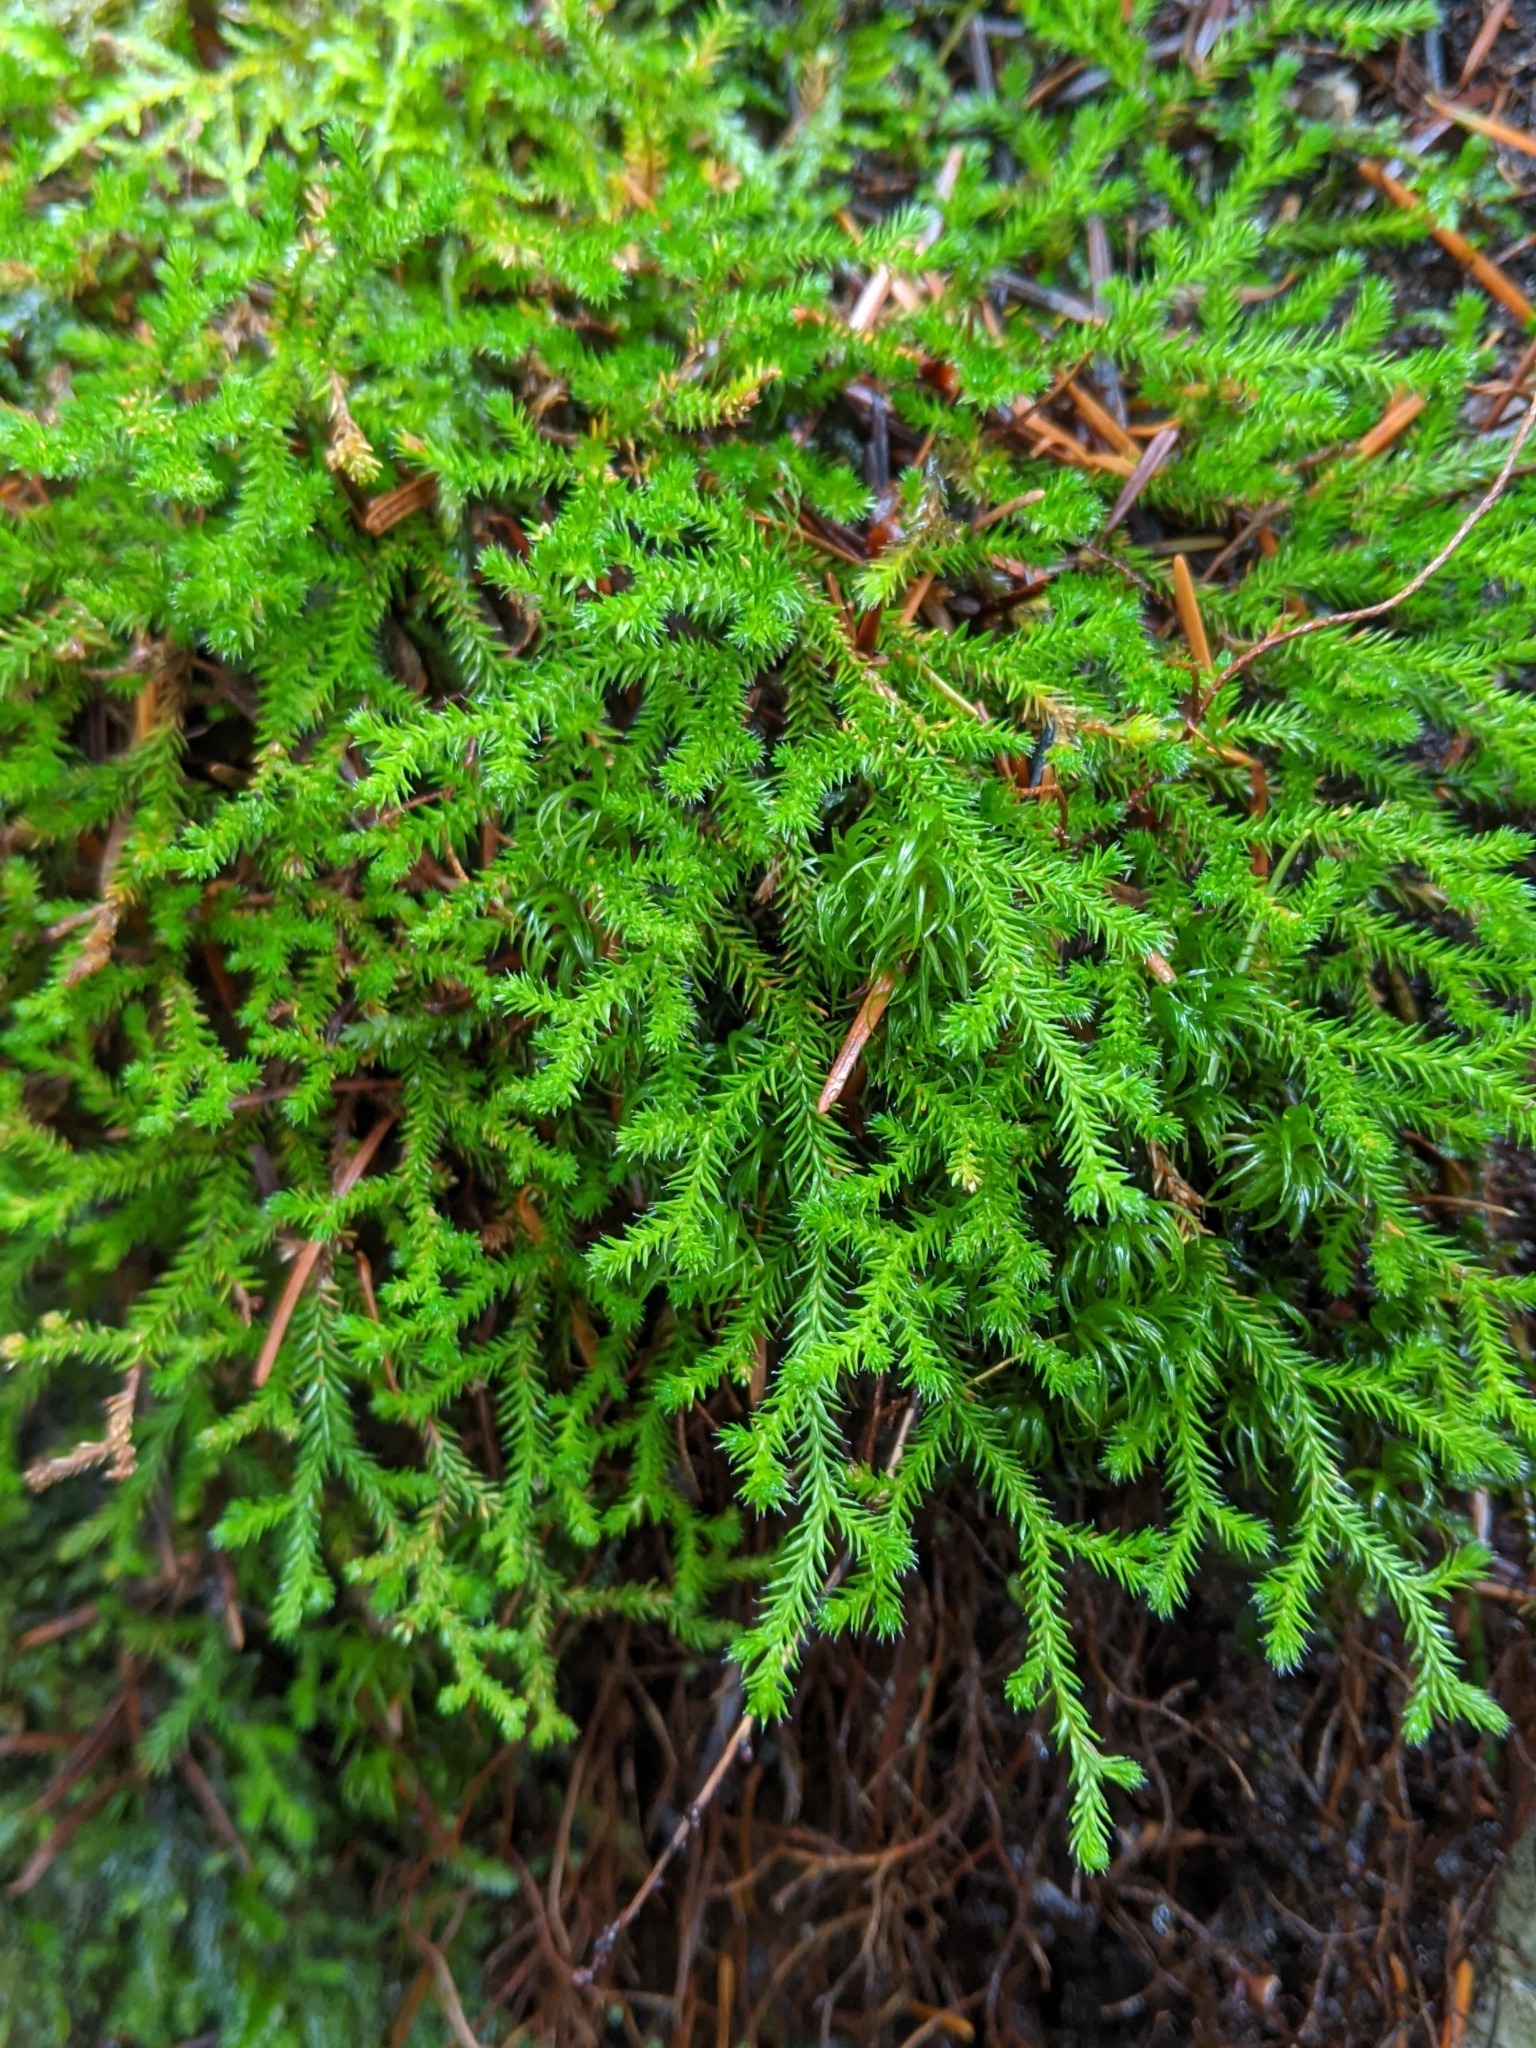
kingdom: Plantae
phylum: Tracheophyta
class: Lycopodiopsida
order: Selaginellales
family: Selaginellaceae
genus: Selaginella
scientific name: Selaginella wallacei
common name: Wallace's selaginella
